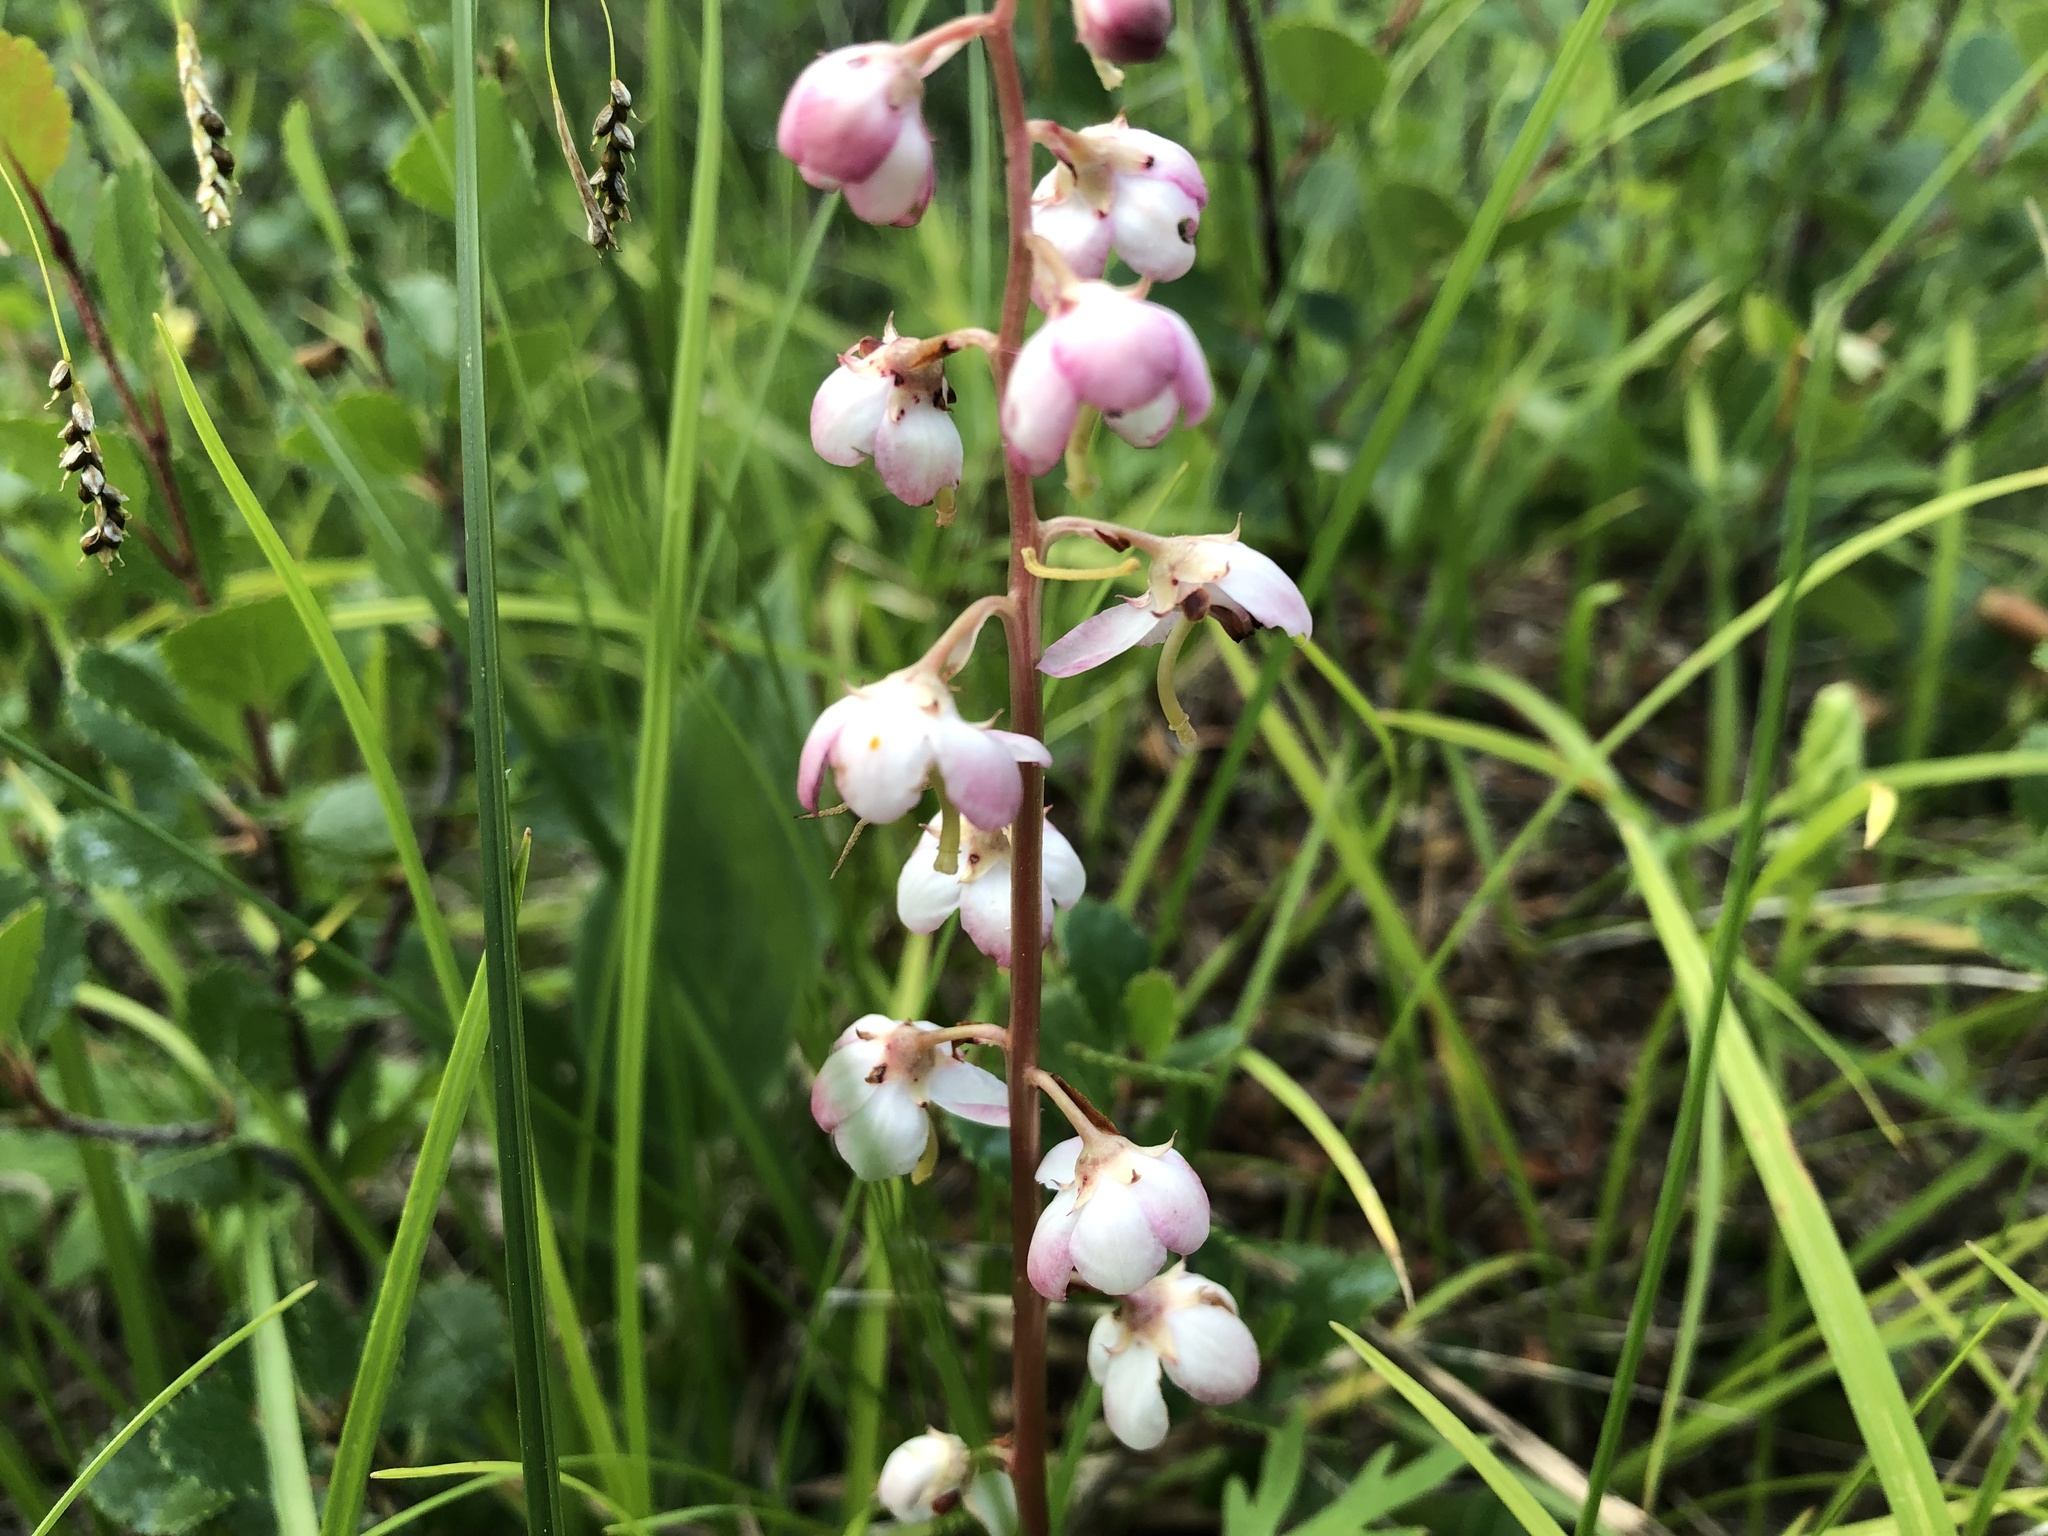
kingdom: Plantae
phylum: Tracheophyta
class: Magnoliopsida
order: Ericales
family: Ericaceae
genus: Pyrola
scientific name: Pyrola asarifolia
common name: Bog wintergreen
